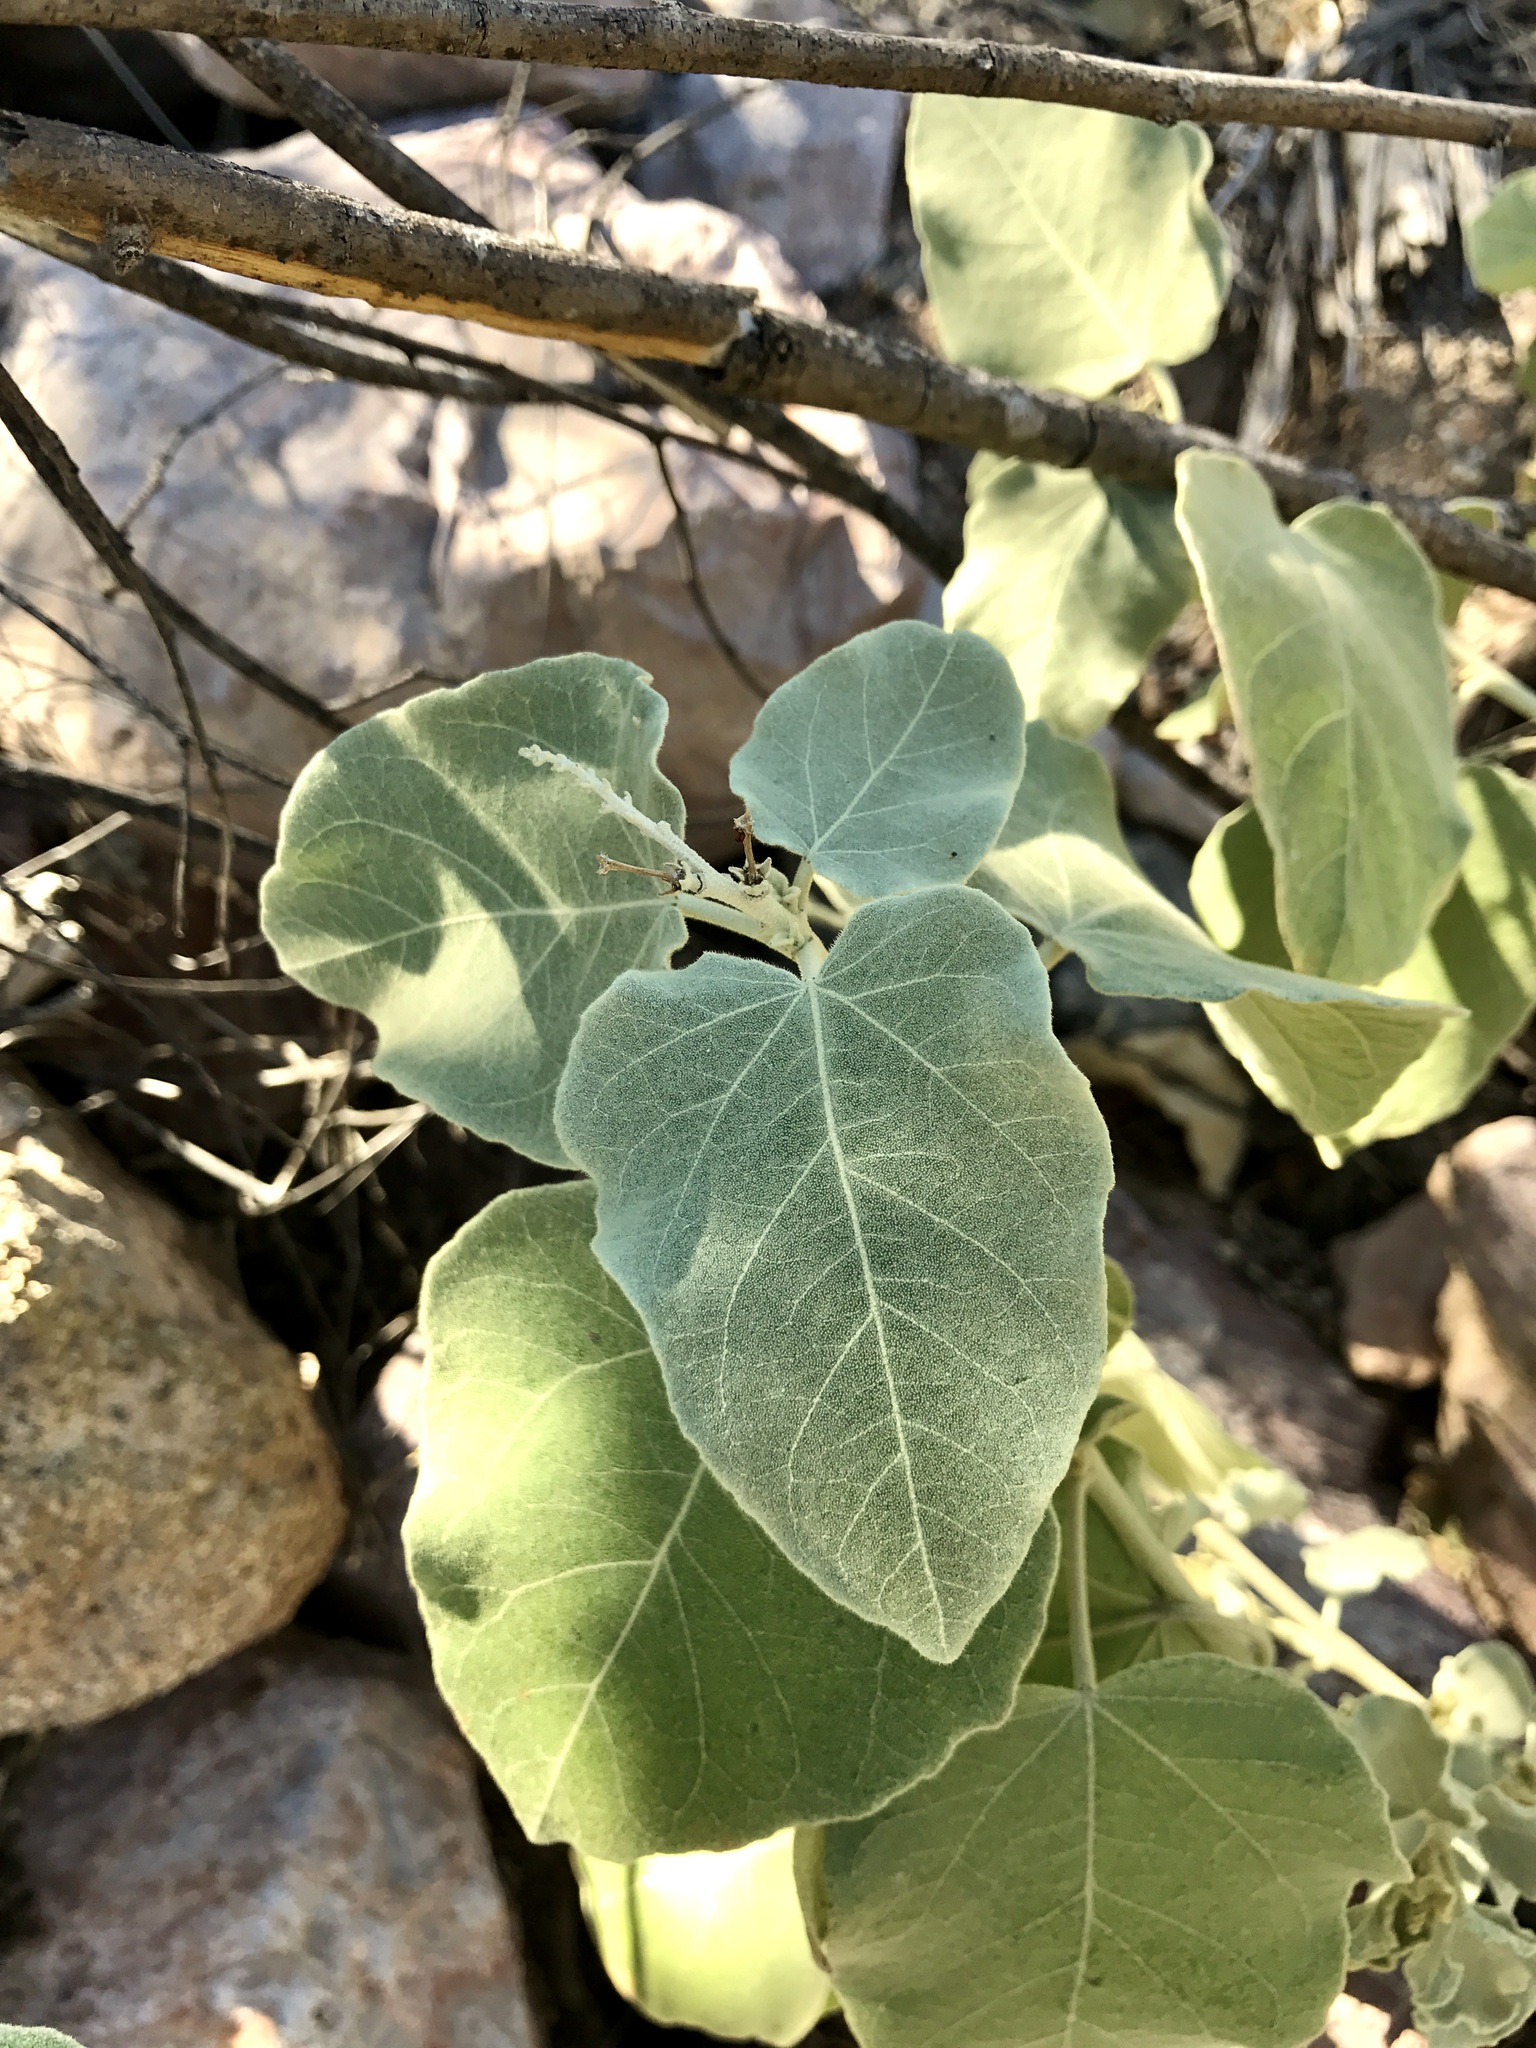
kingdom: Plantae
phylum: Tracheophyta
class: Magnoliopsida
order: Malpighiales
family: Euphorbiaceae
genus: Croton
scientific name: Croton magdalenae
